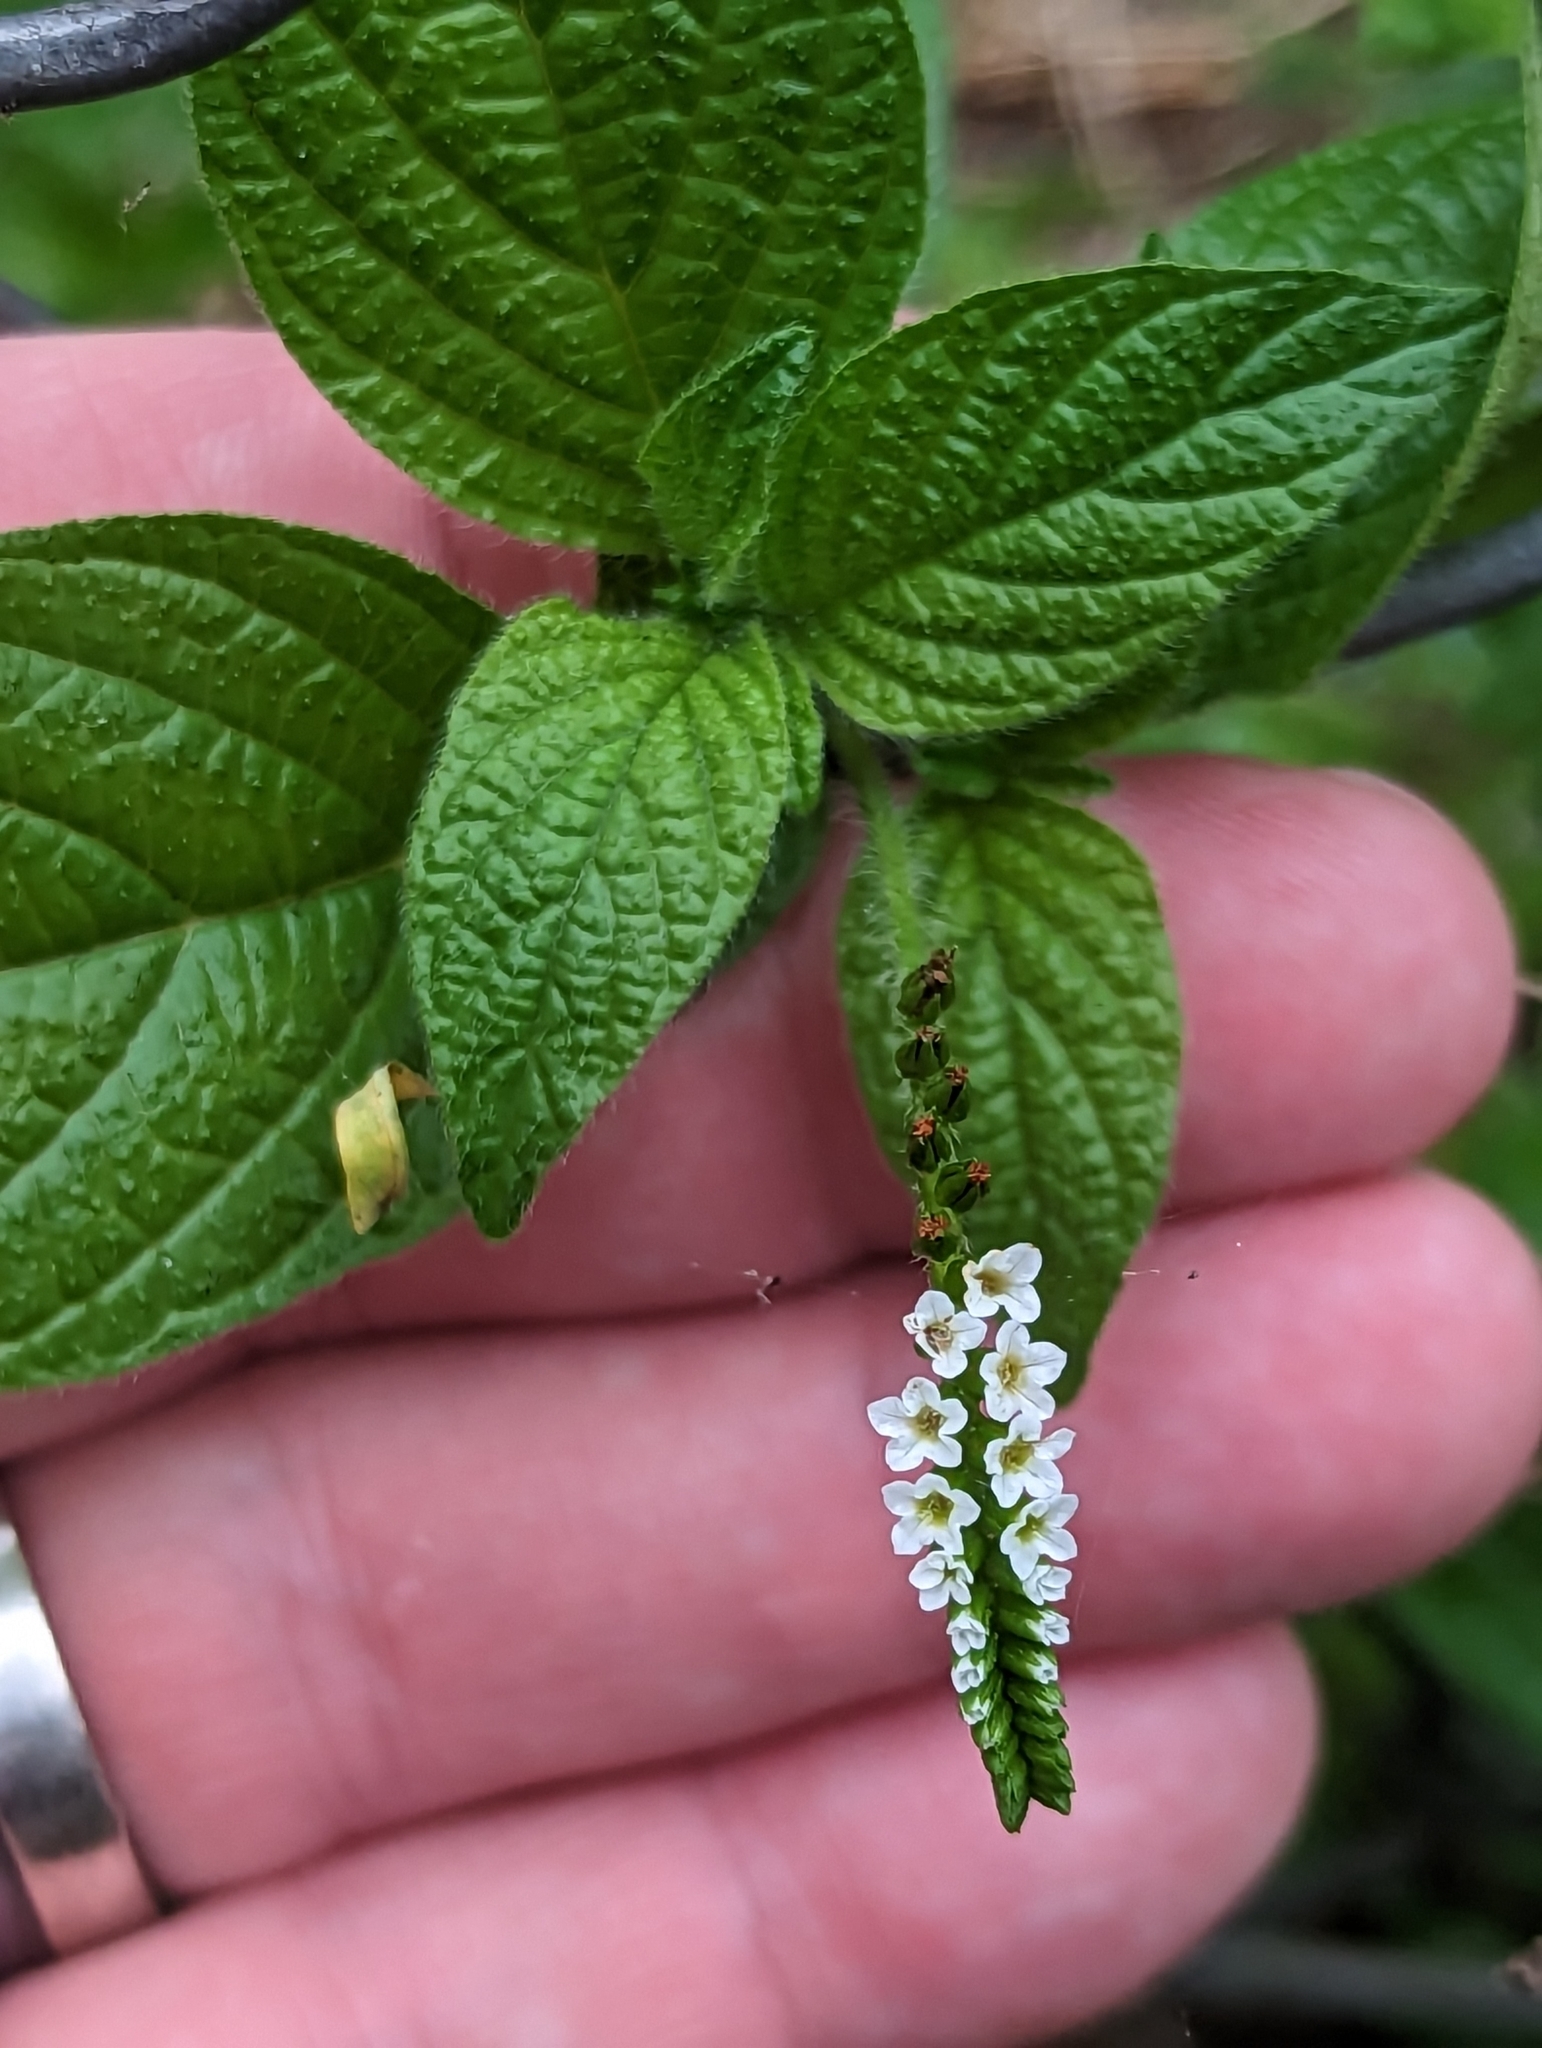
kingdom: Plantae
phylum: Tracheophyta
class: Magnoliopsida
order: Boraginales
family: Heliotropiaceae
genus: Heliotropium
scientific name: Heliotropium angiospermum
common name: Eye bright
